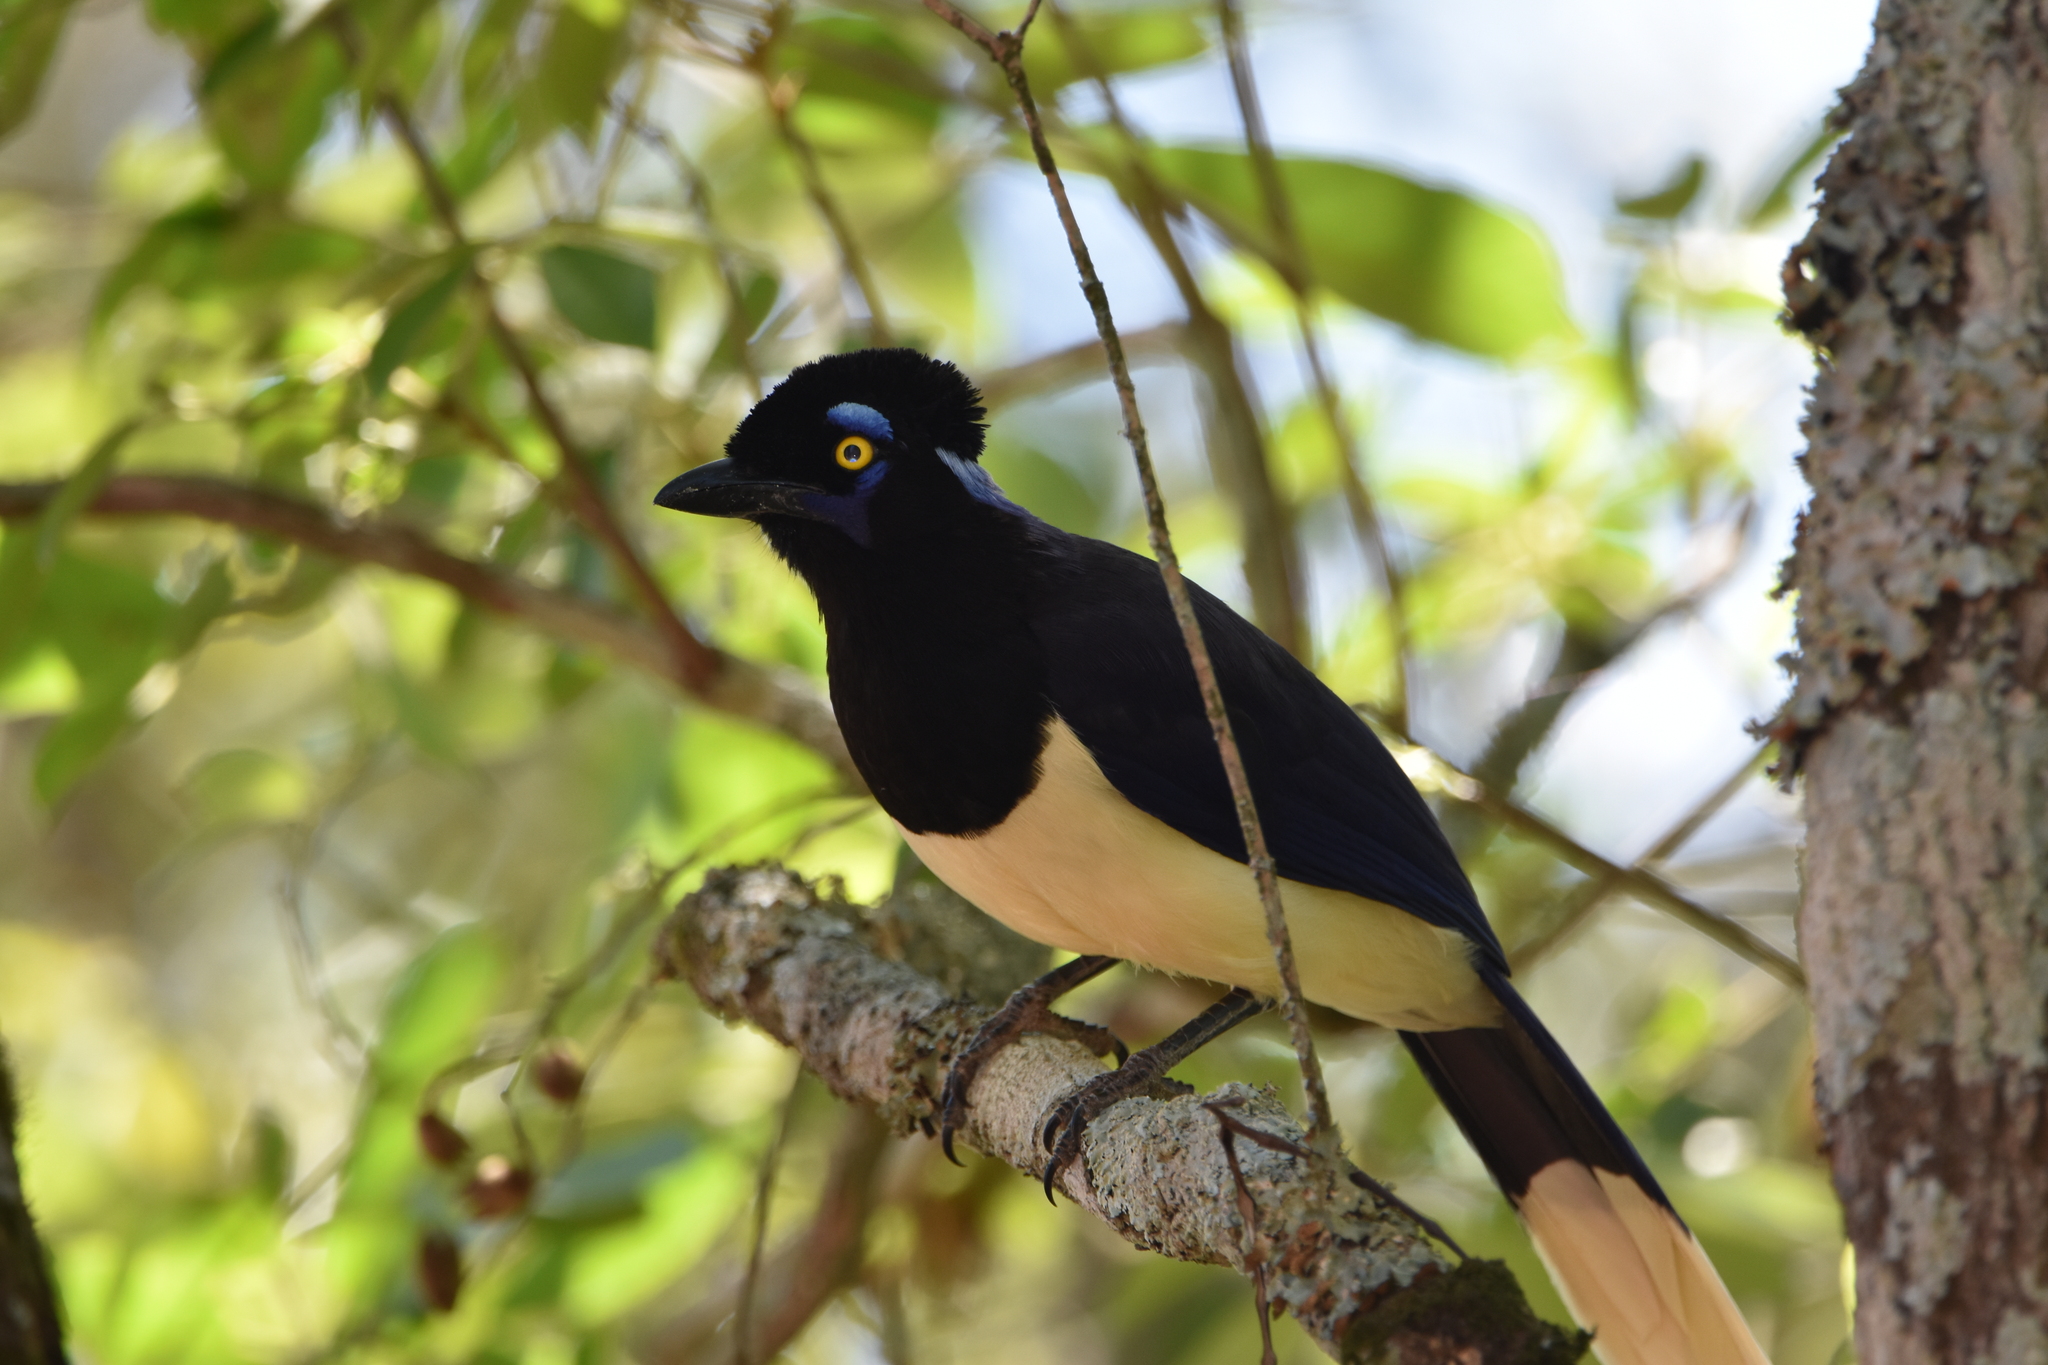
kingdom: Animalia
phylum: Chordata
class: Aves
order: Passeriformes
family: Corvidae
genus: Cyanocorax
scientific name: Cyanocorax chrysops
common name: Plush-crested jay
